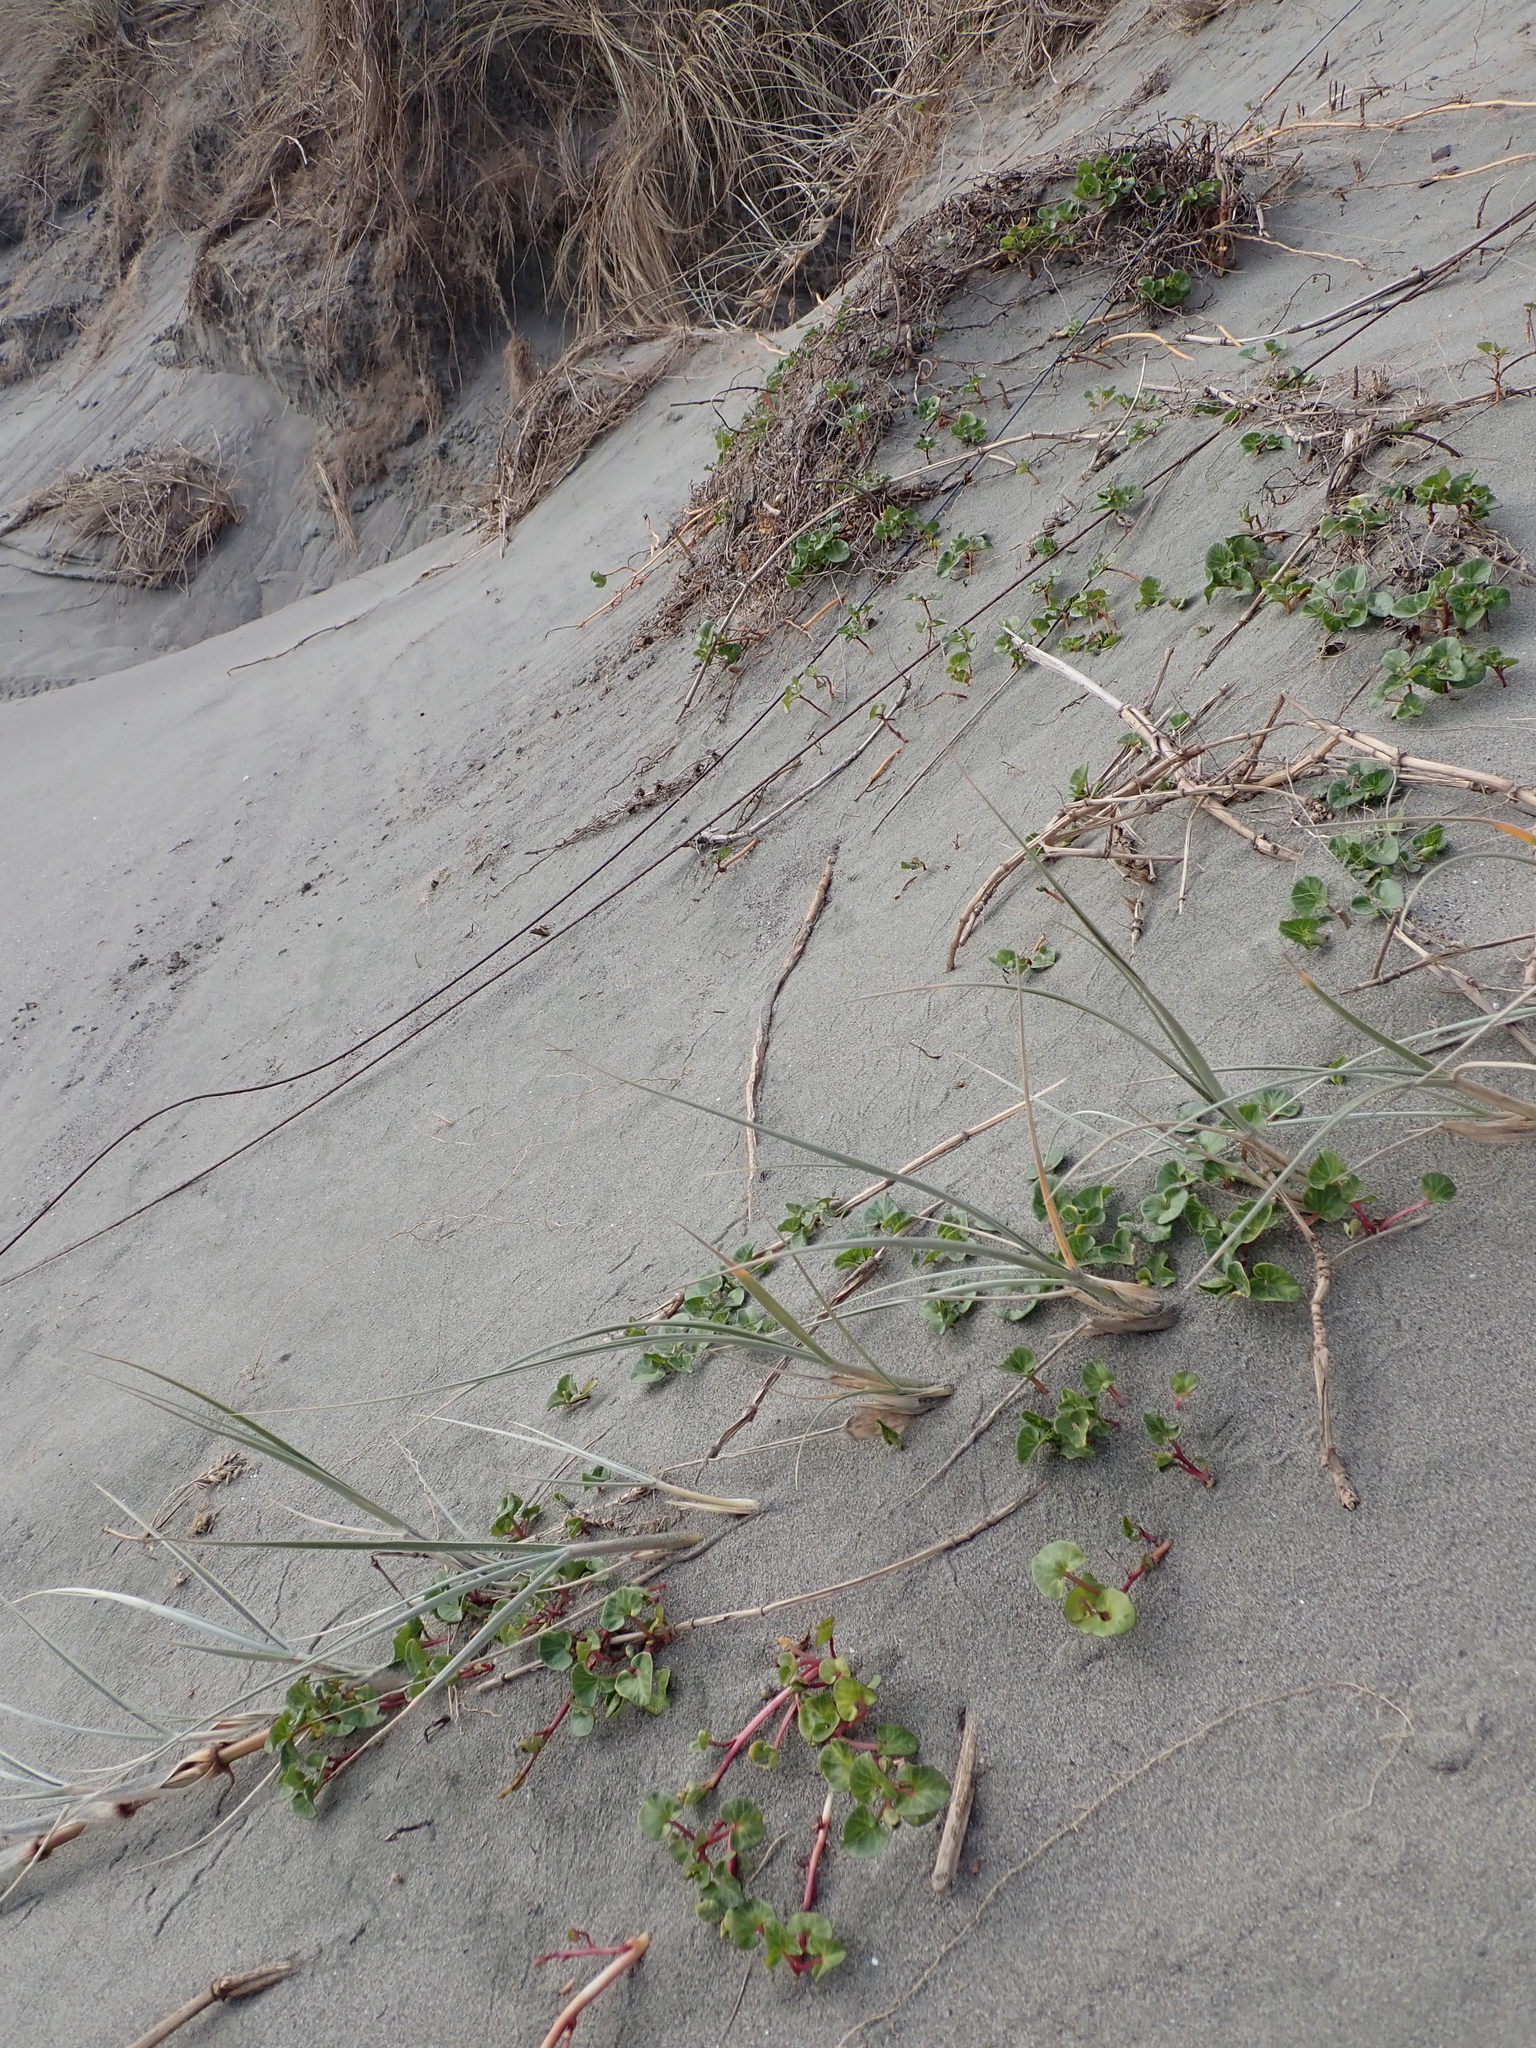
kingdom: Plantae
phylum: Tracheophyta
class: Magnoliopsida
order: Solanales
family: Convolvulaceae
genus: Calystegia
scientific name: Calystegia soldanella
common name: Sea bindweed
